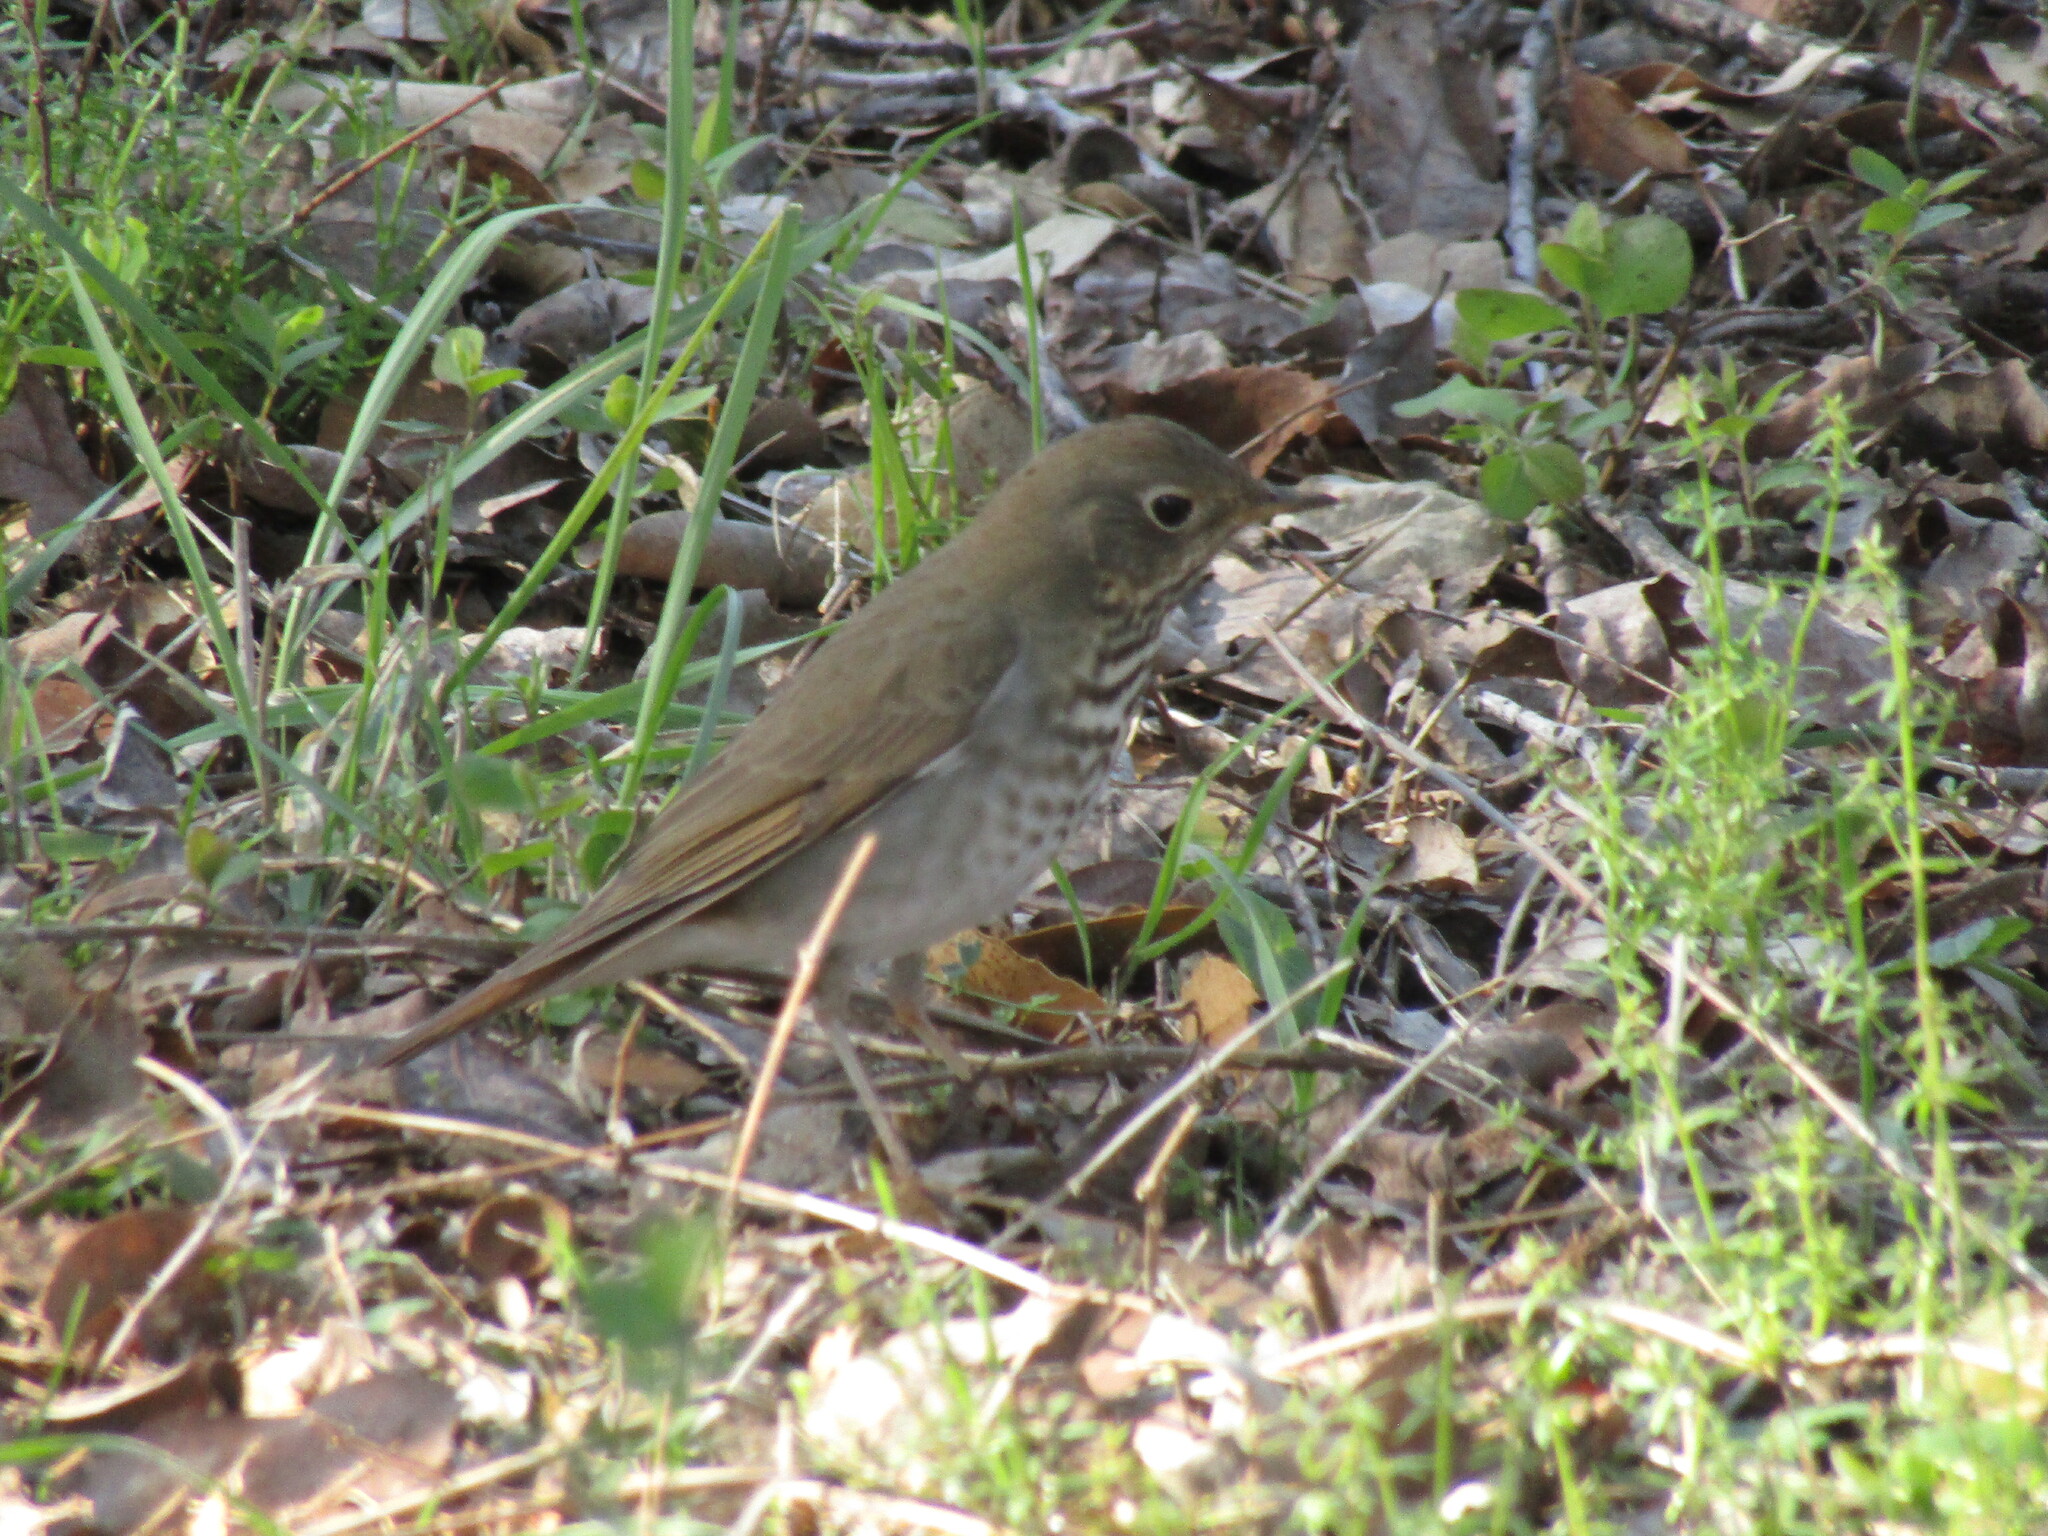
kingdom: Animalia
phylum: Chordata
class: Aves
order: Passeriformes
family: Turdidae
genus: Catharus
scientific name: Catharus guttatus
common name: Hermit thrush
